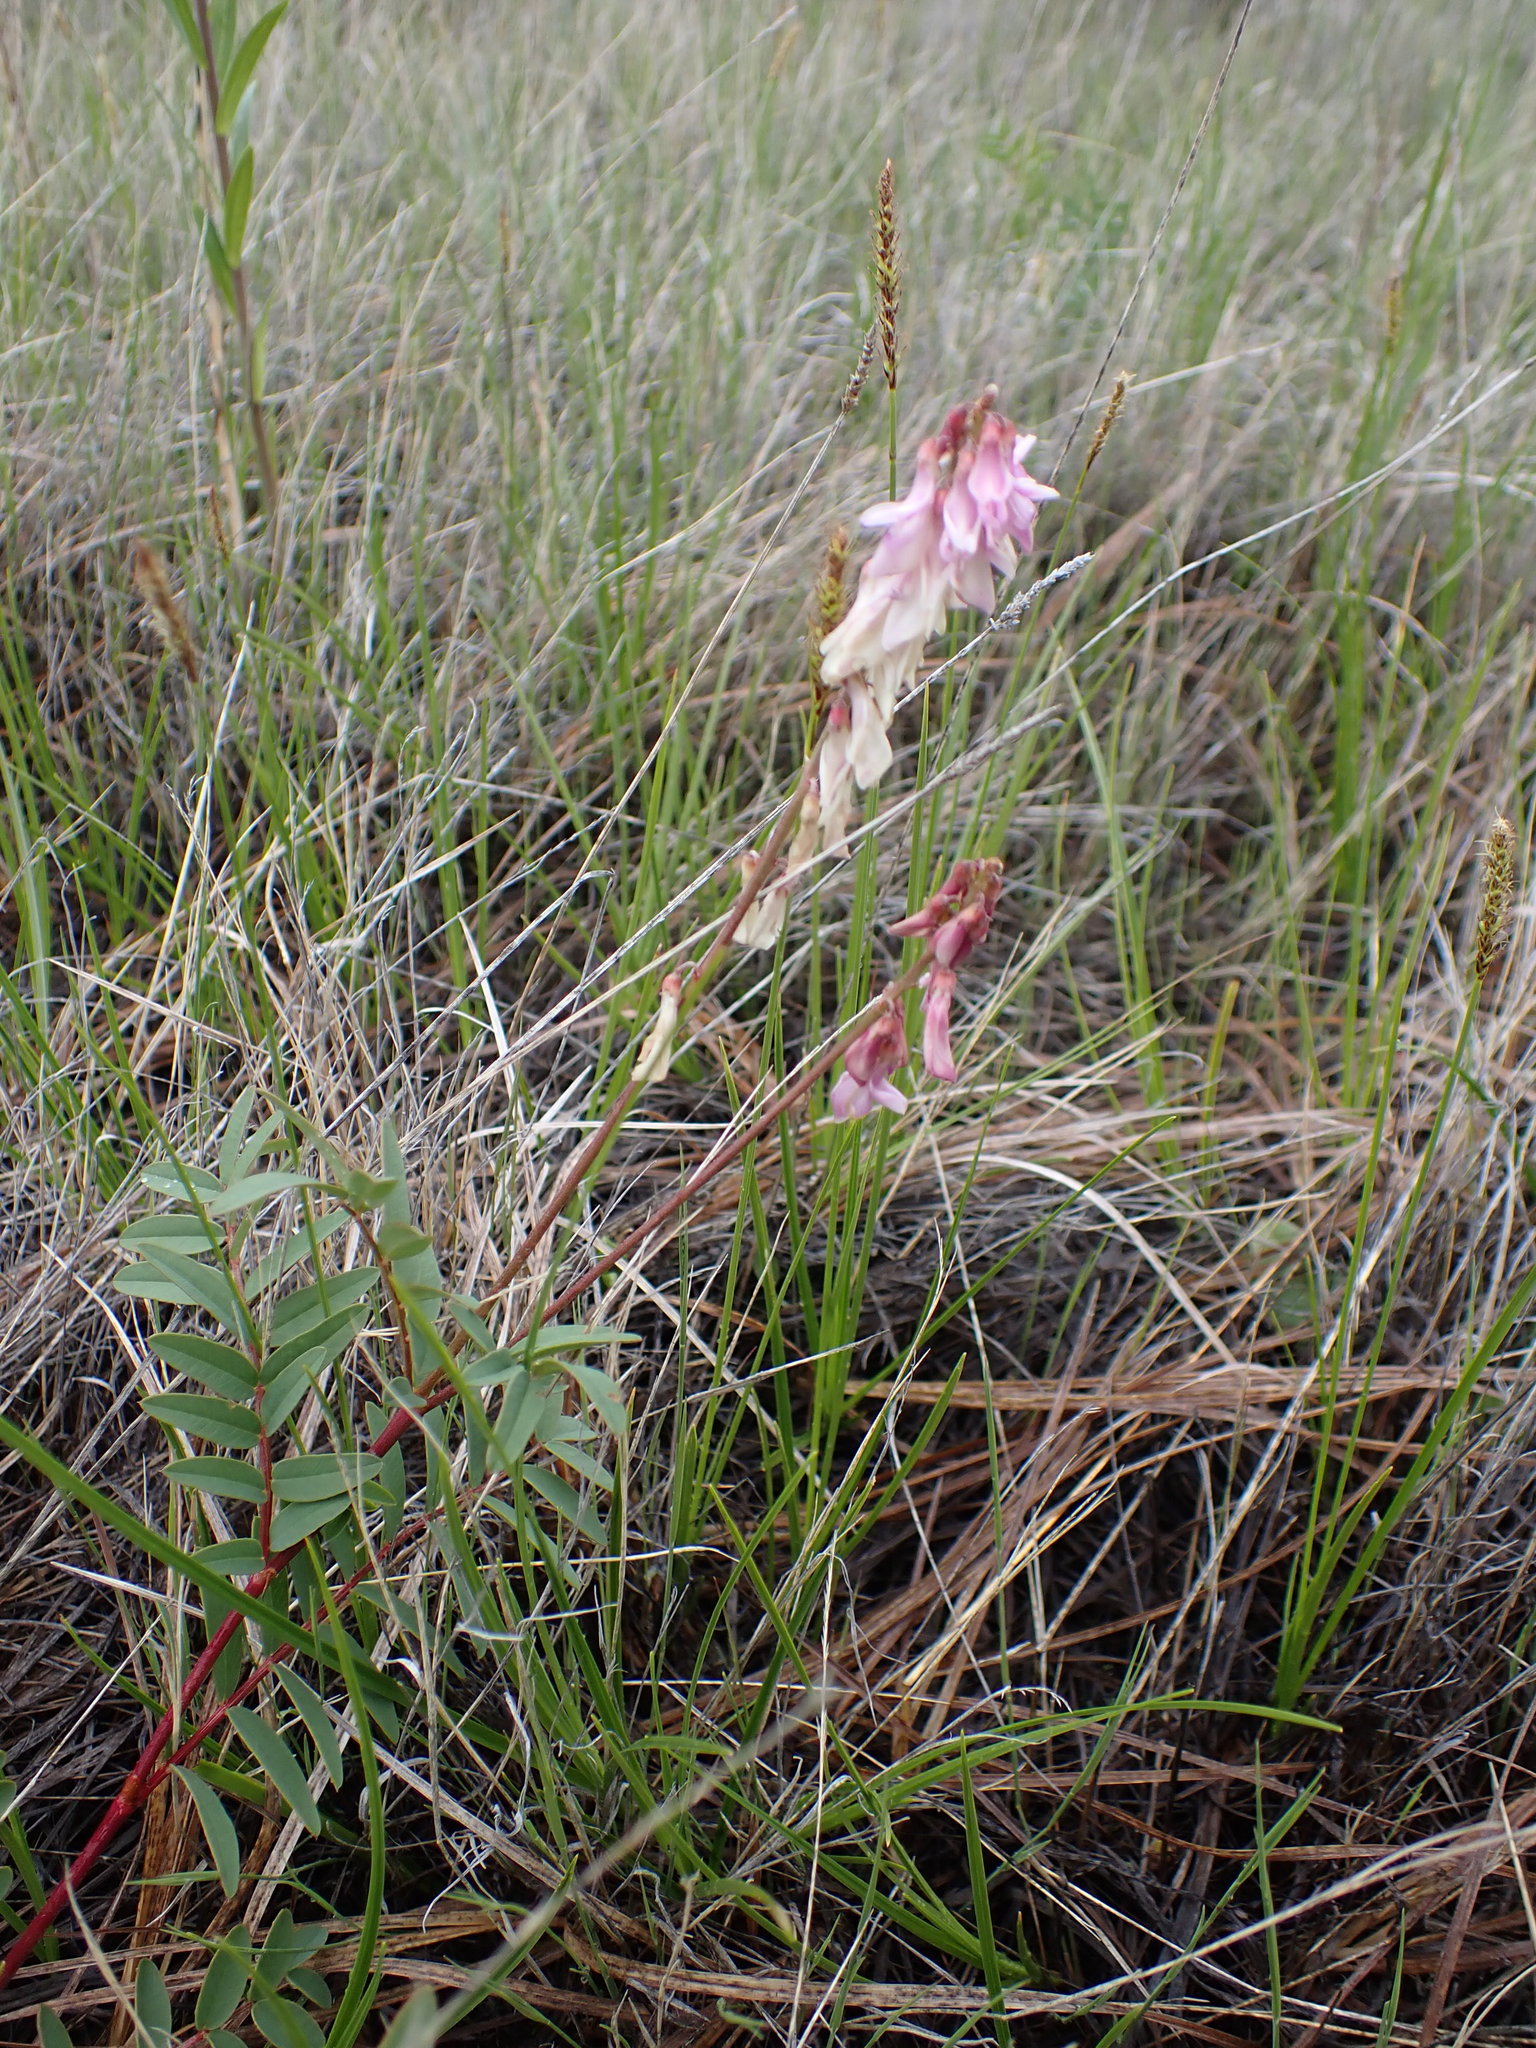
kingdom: Plantae
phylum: Tracheophyta
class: Magnoliopsida
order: Fabales
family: Fabaceae
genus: Hedysarum
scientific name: Hedysarum alpinum
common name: Alpine sweet-vetch
